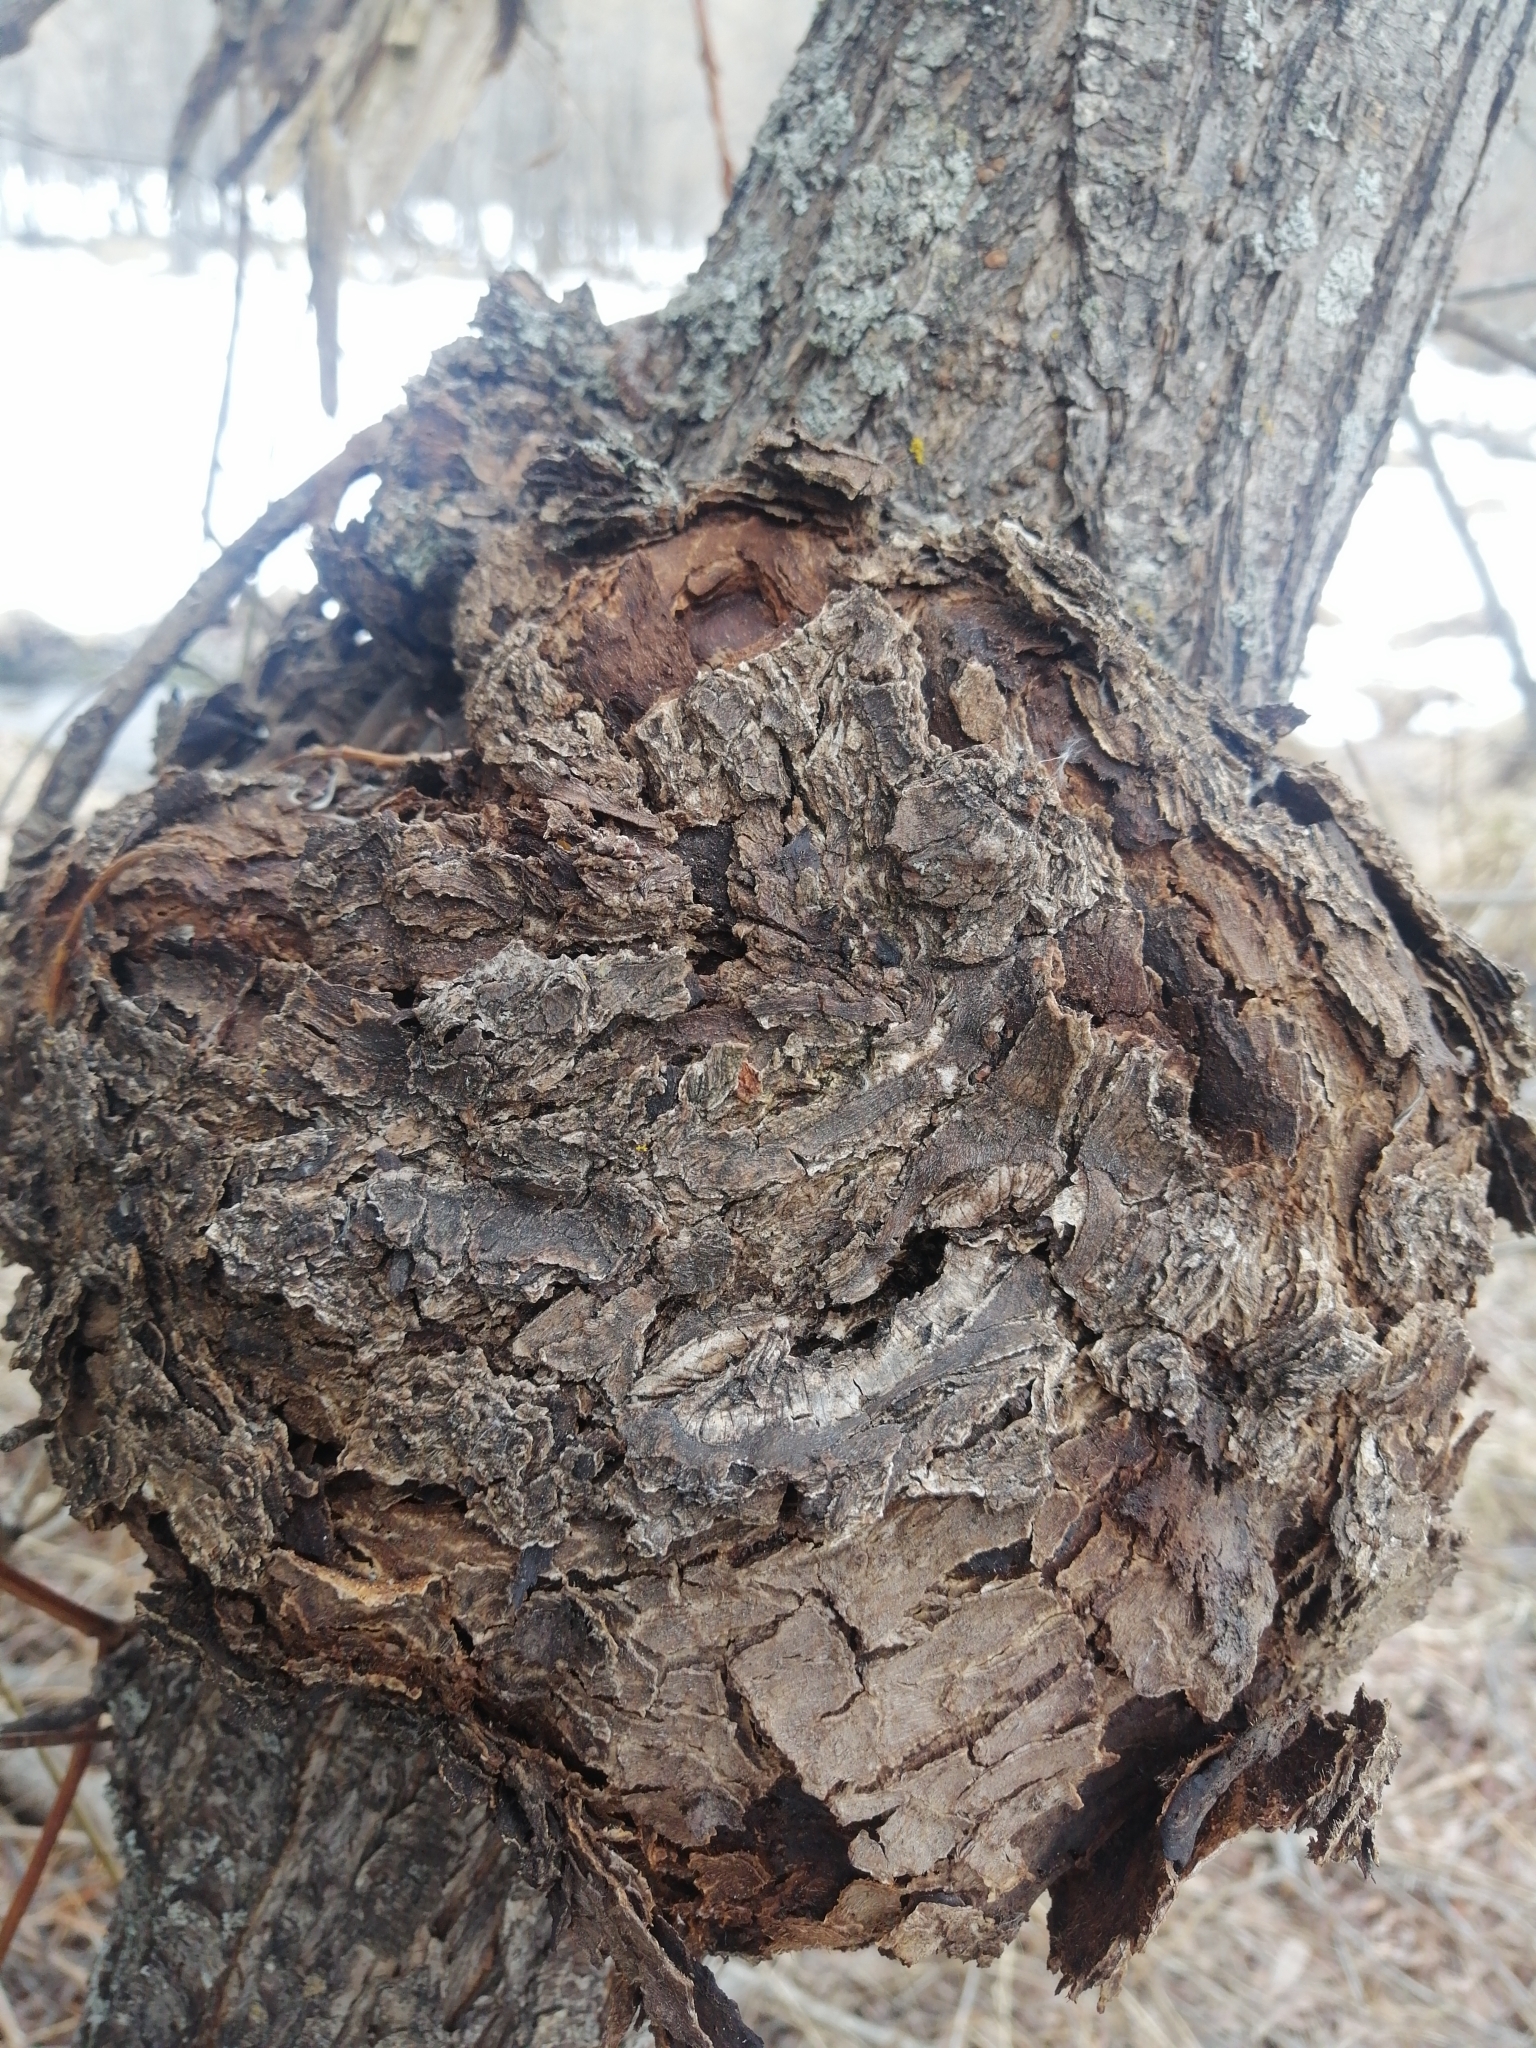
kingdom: Bacteria
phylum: Proteobacteria
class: Alphaproteobacteria
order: Rhizobiales
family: Rhizobiaceae
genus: Rhizobium
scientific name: Rhizobium Agrobacterium radiobacter
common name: Bacterial crown gall
